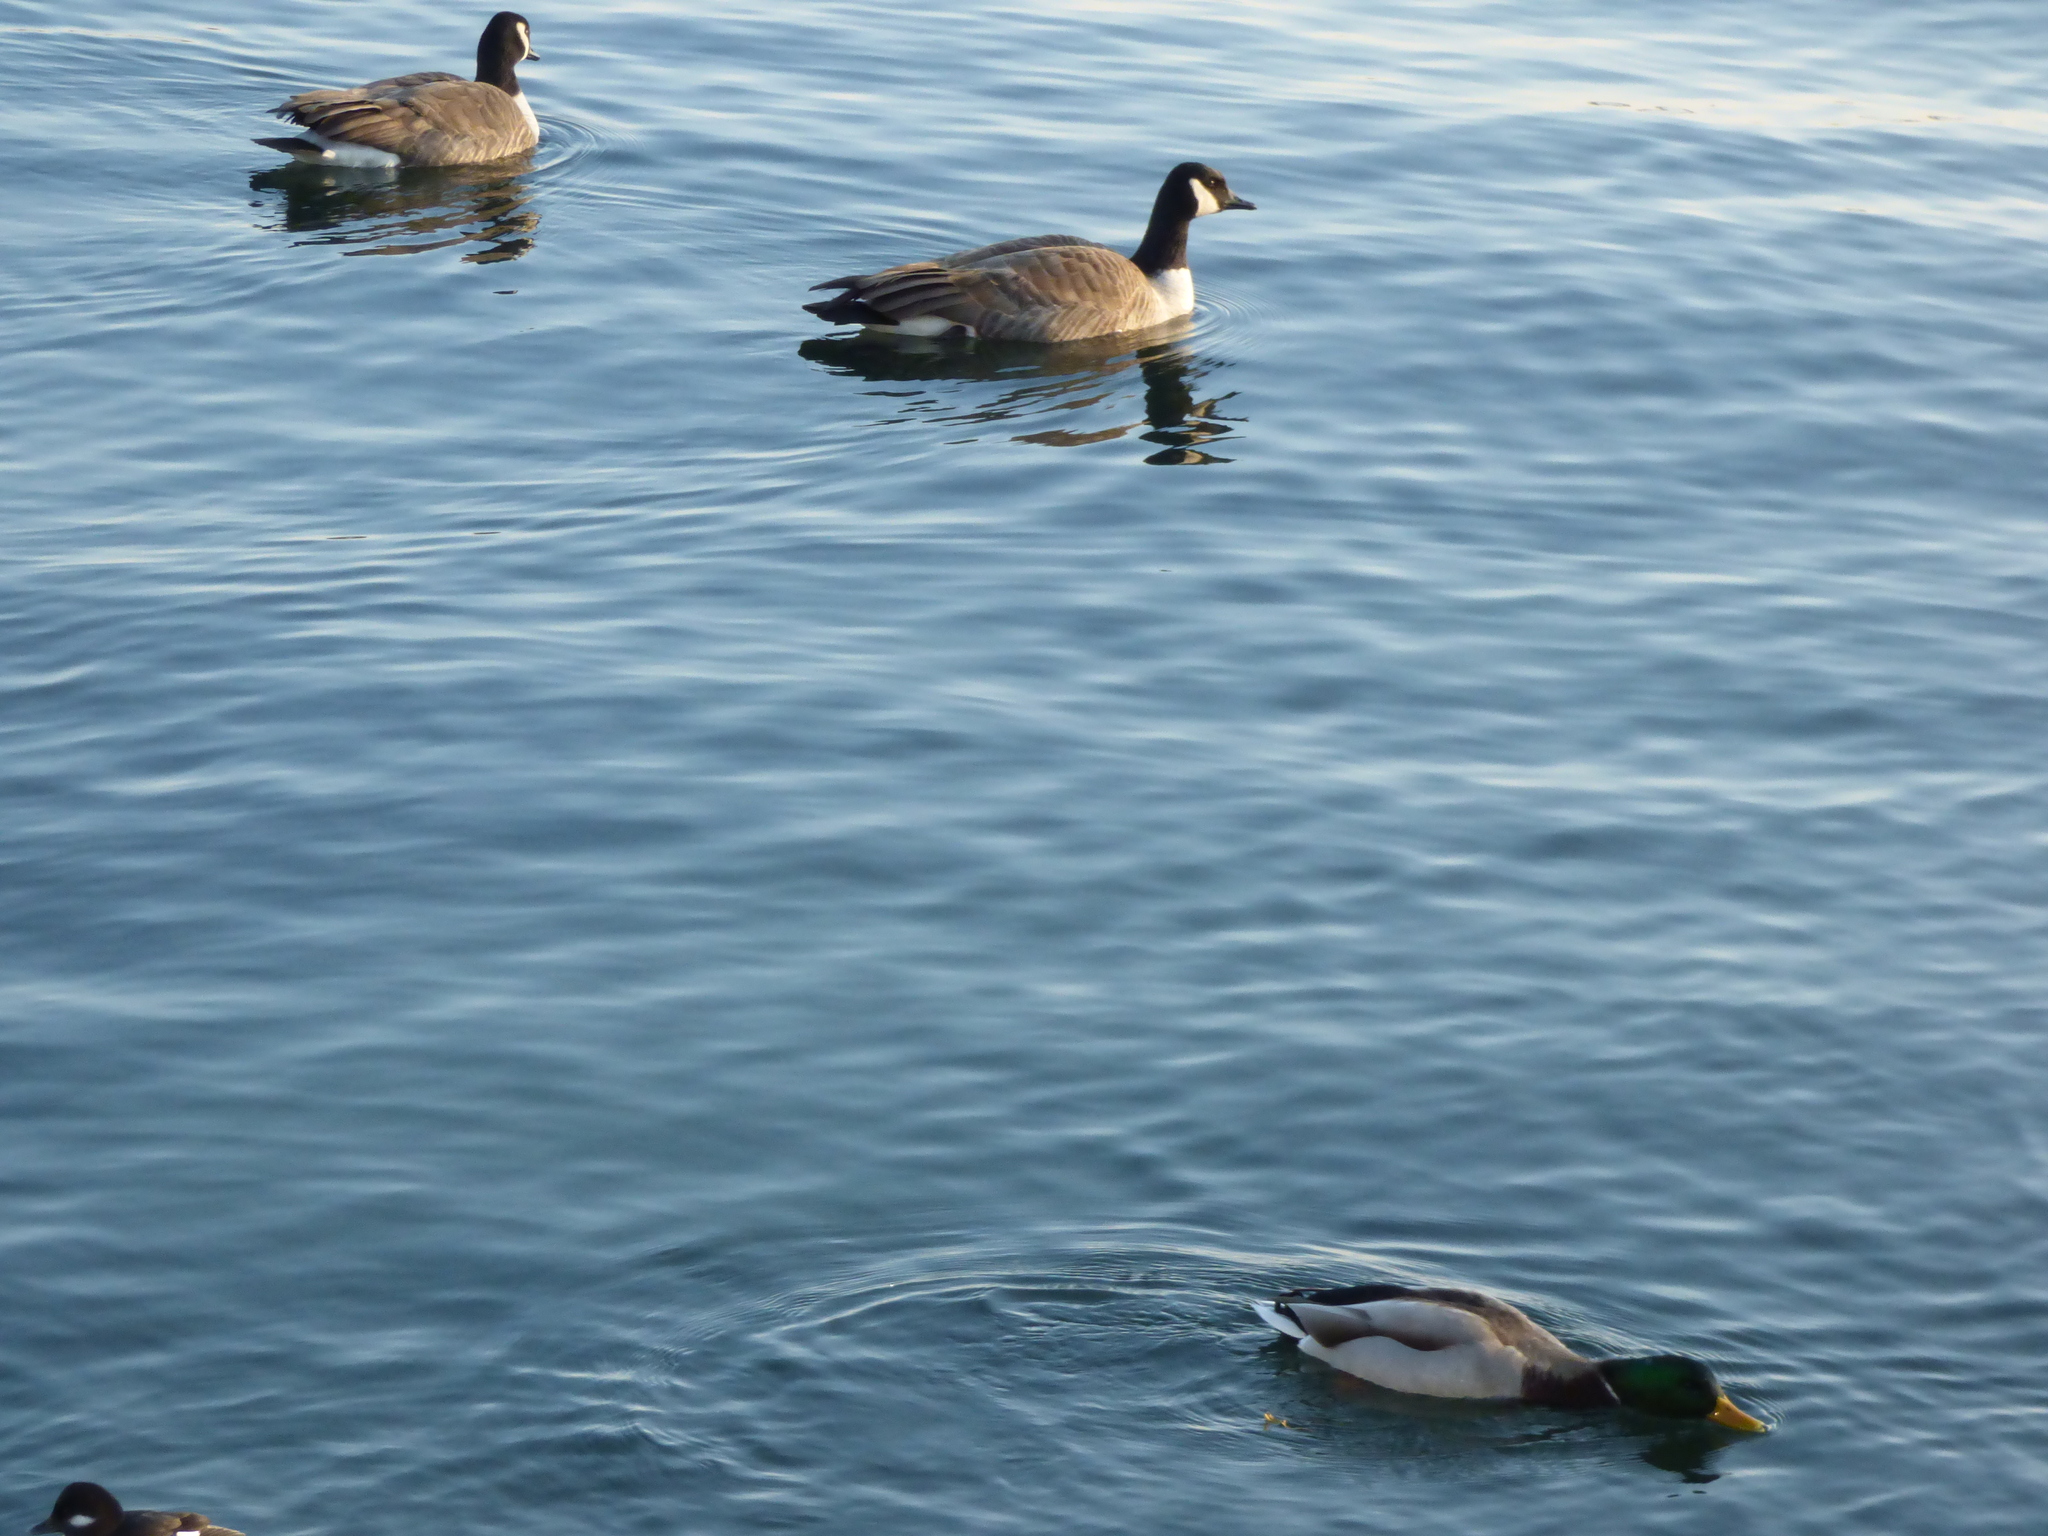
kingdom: Animalia
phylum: Chordata
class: Aves
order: Anseriformes
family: Anatidae
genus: Anas
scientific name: Anas platyrhynchos
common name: Mallard
